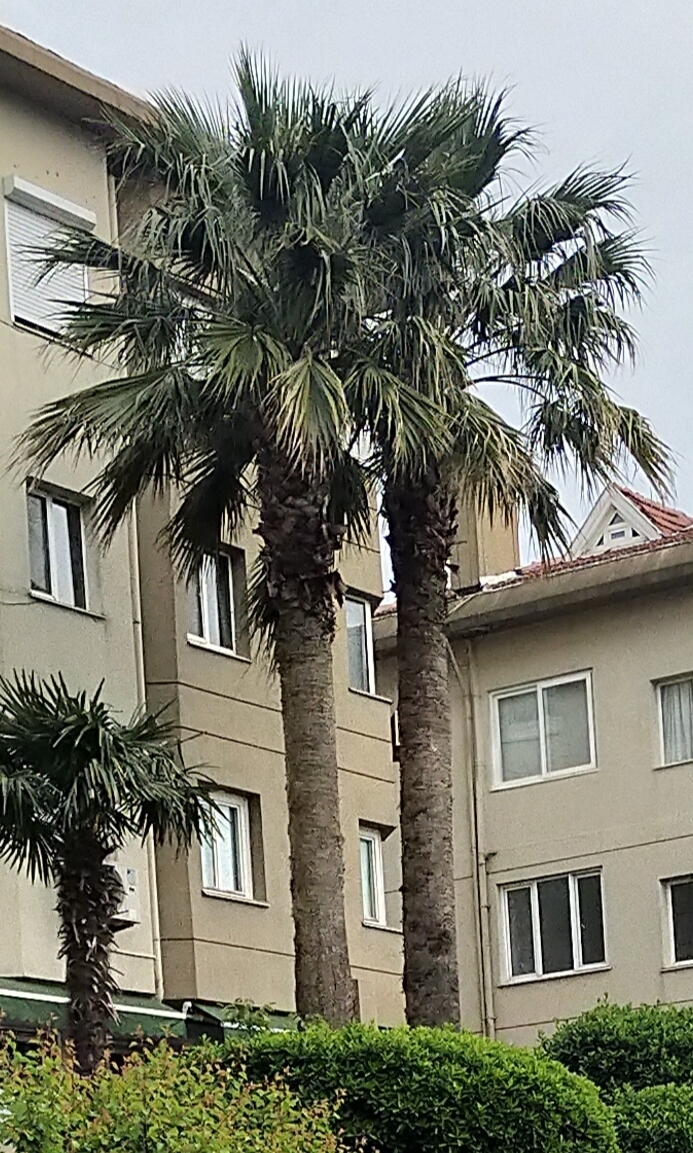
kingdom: Plantae
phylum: Tracheophyta
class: Liliopsida
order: Arecales
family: Arecaceae
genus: Washingtonia
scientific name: Washingtonia robusta
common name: Mexican fan palm
